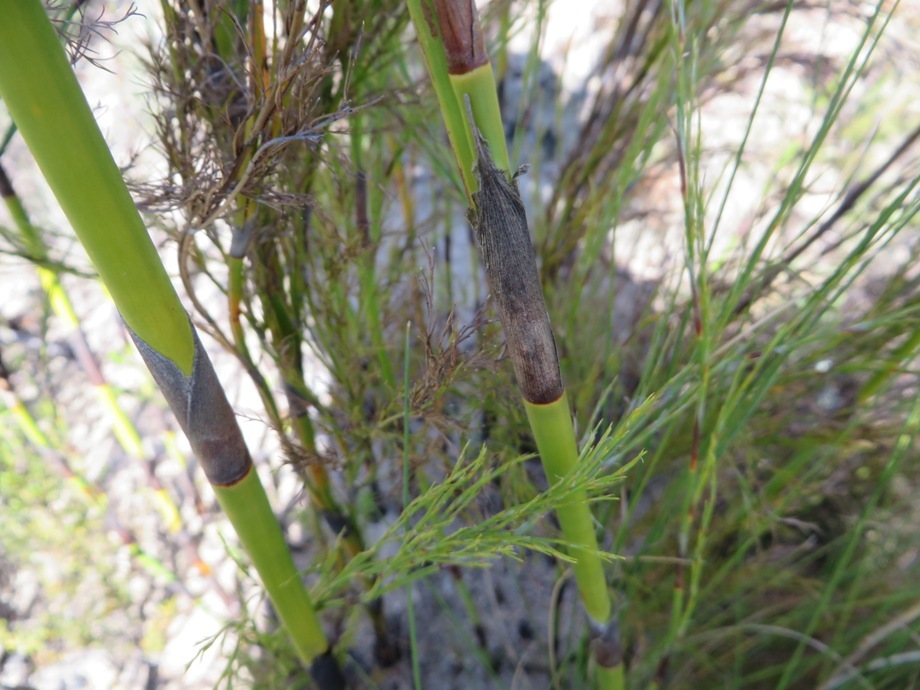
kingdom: Plantae
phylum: Tracheophyta
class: Liliopsida
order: Poales
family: Restionaceae
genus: Restio
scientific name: Restio paniculatus
